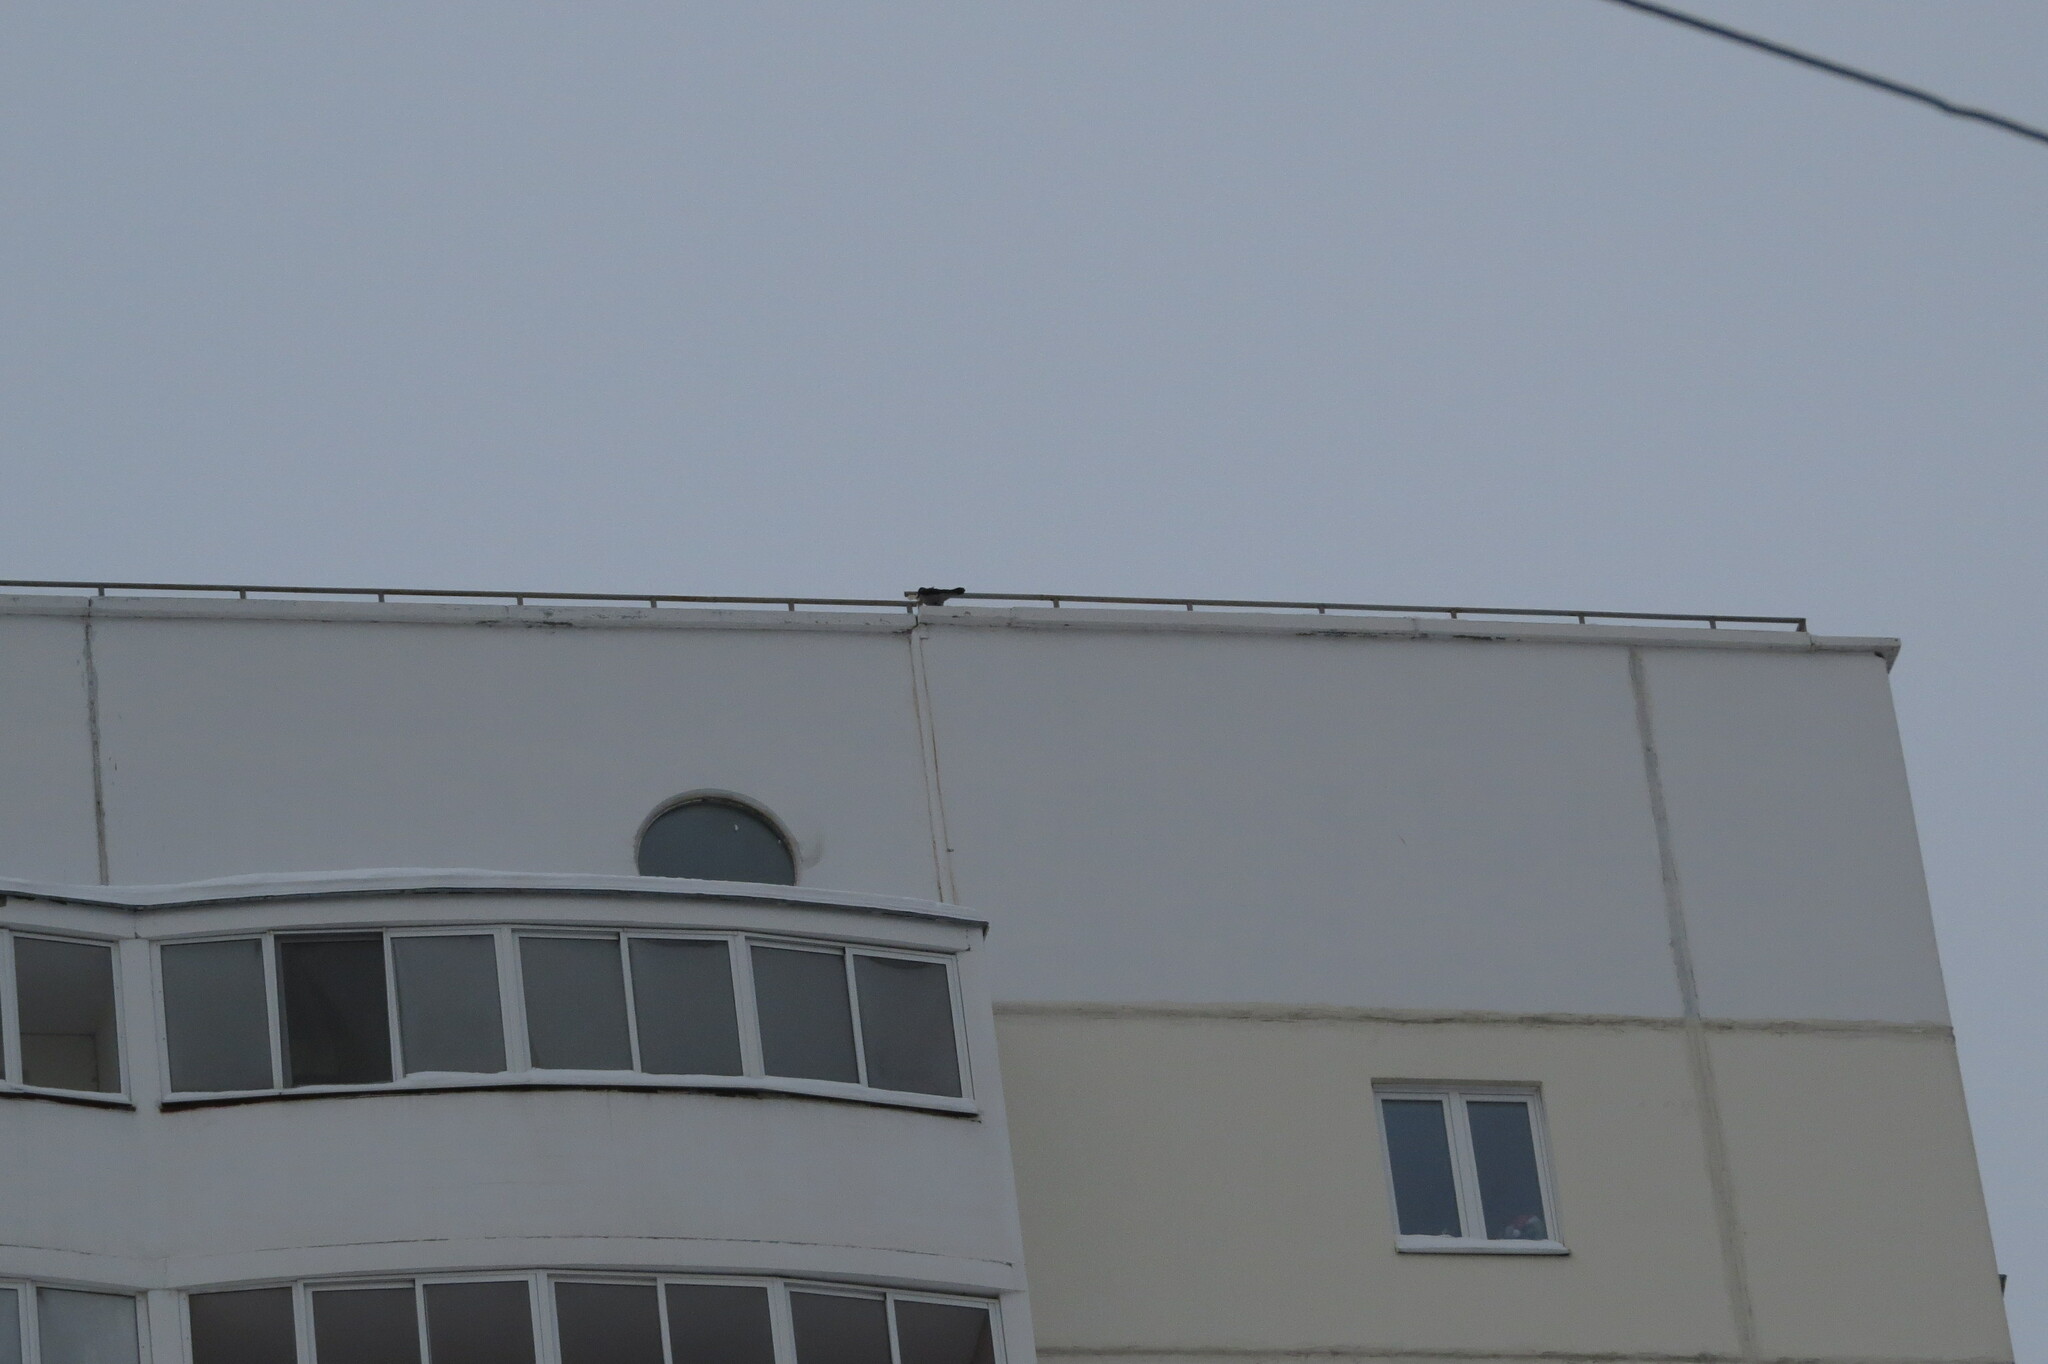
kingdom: Animalia
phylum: Chordata
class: Aves
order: Passeriformes
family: Corvidae
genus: Corvus
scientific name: Corvus cornix
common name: Hooded crow
